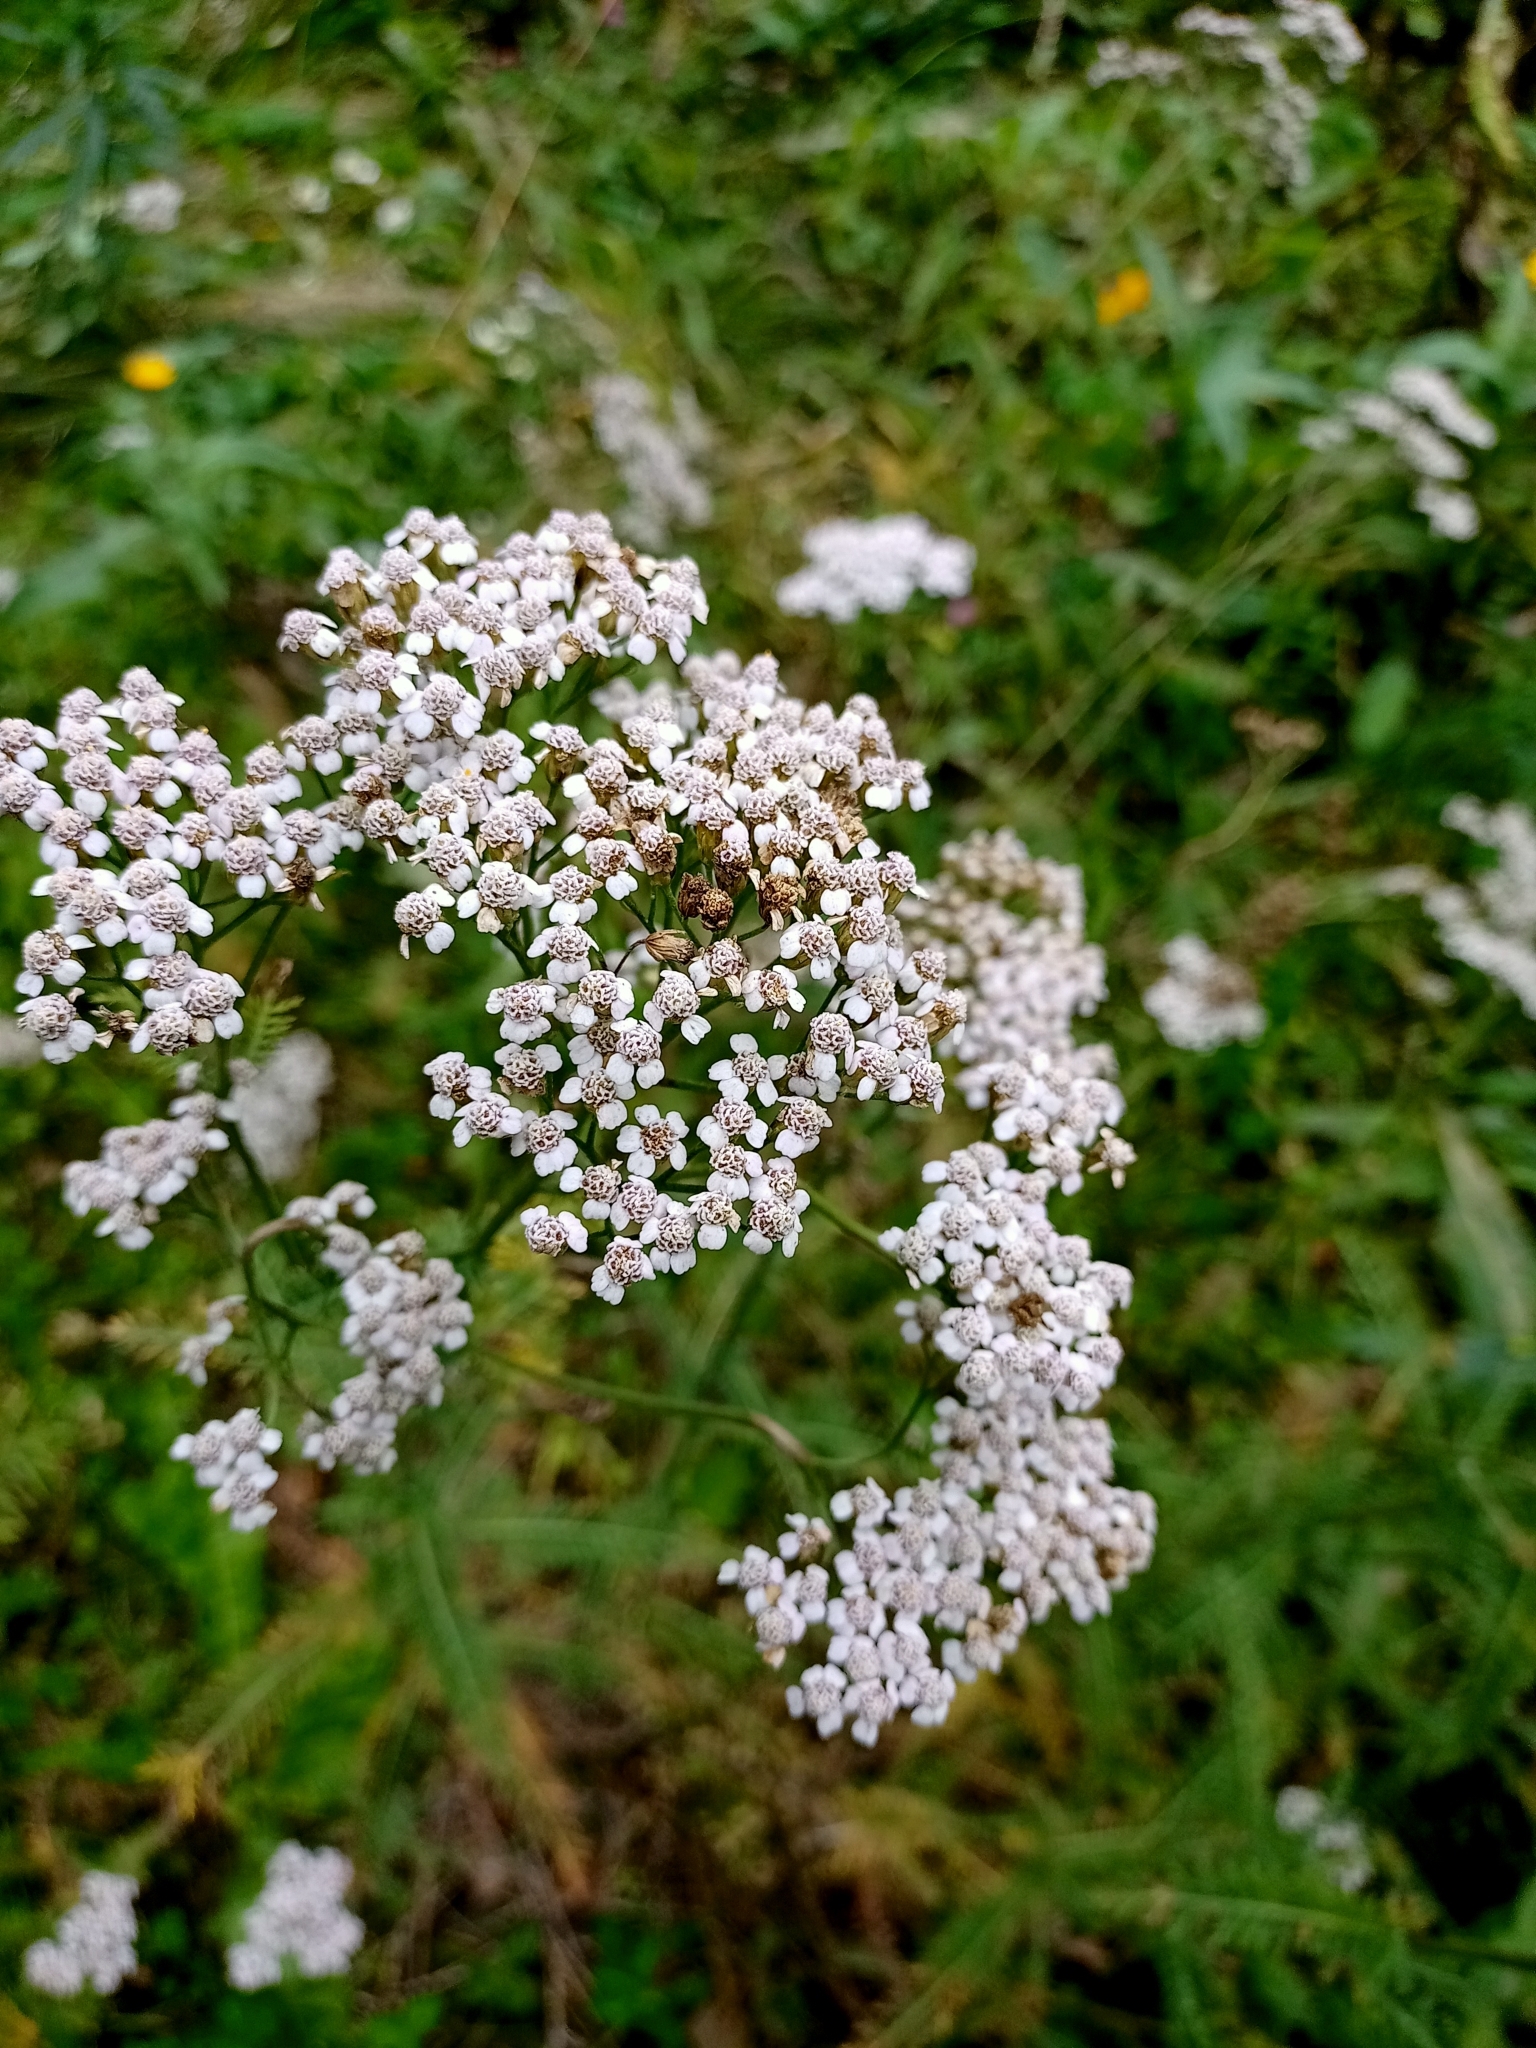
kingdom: Plantae
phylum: Tracheophyta
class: Magnoliopsida
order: Asterales
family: Asteraceae
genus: Achillea
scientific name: Achillea millefolium
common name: Yarrow
